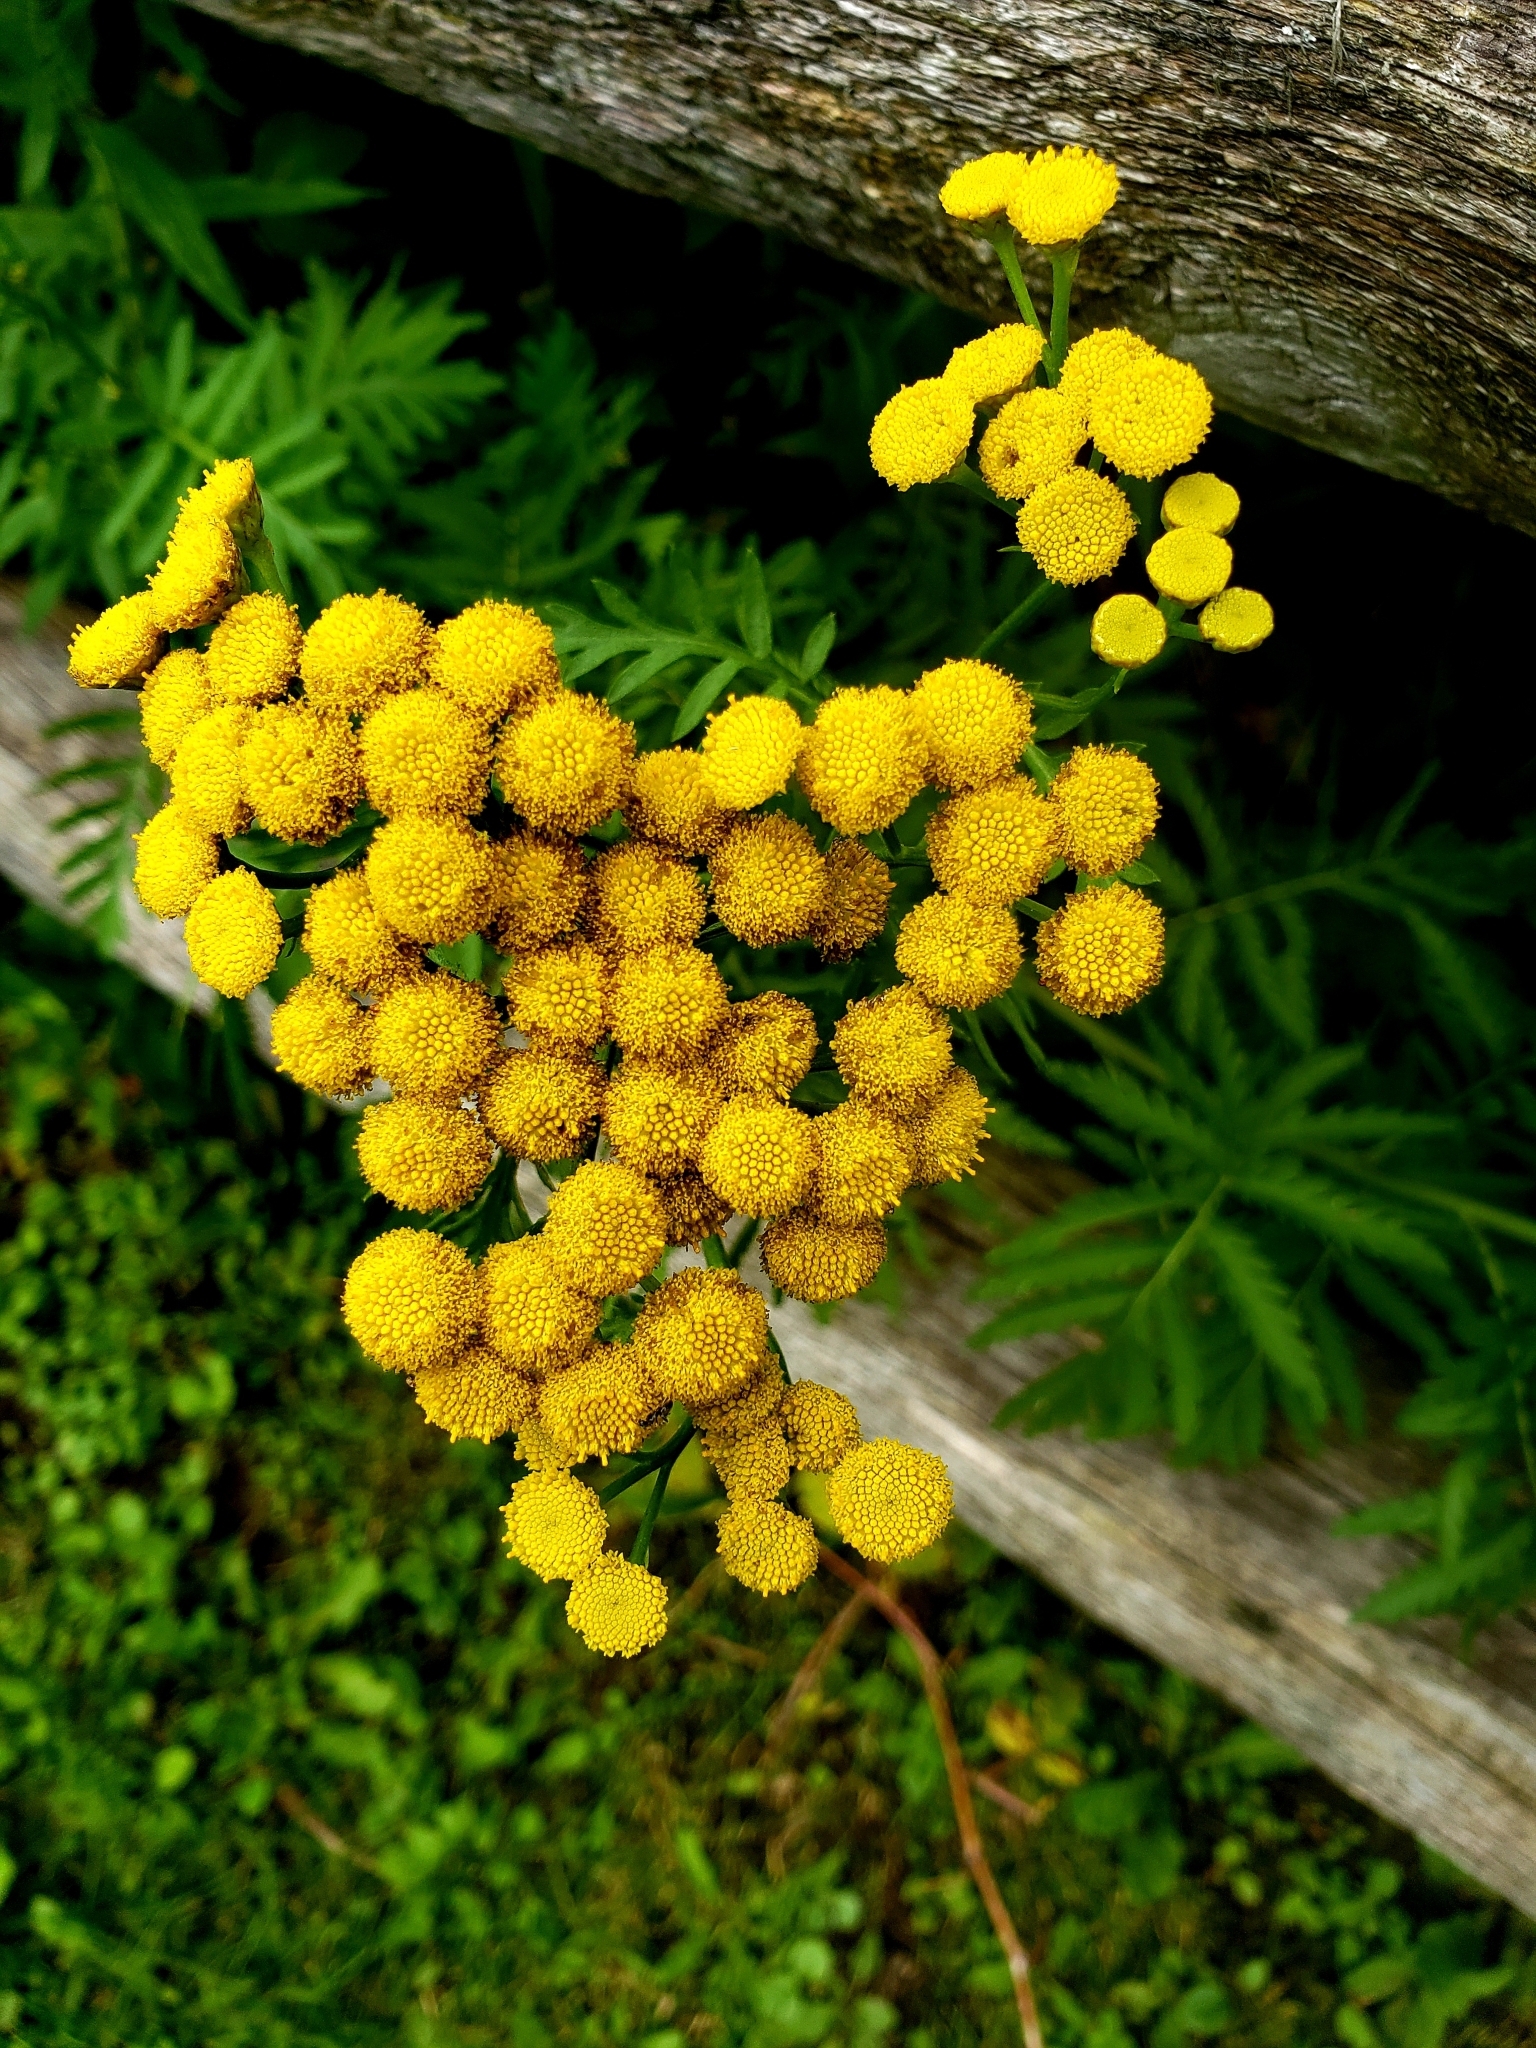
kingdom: Plantae
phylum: Tracheophyta
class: Magnoliopsida
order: Asterales
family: Asteraceae
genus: Tanacetum
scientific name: Tanacetum vulgare
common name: Common tansy
